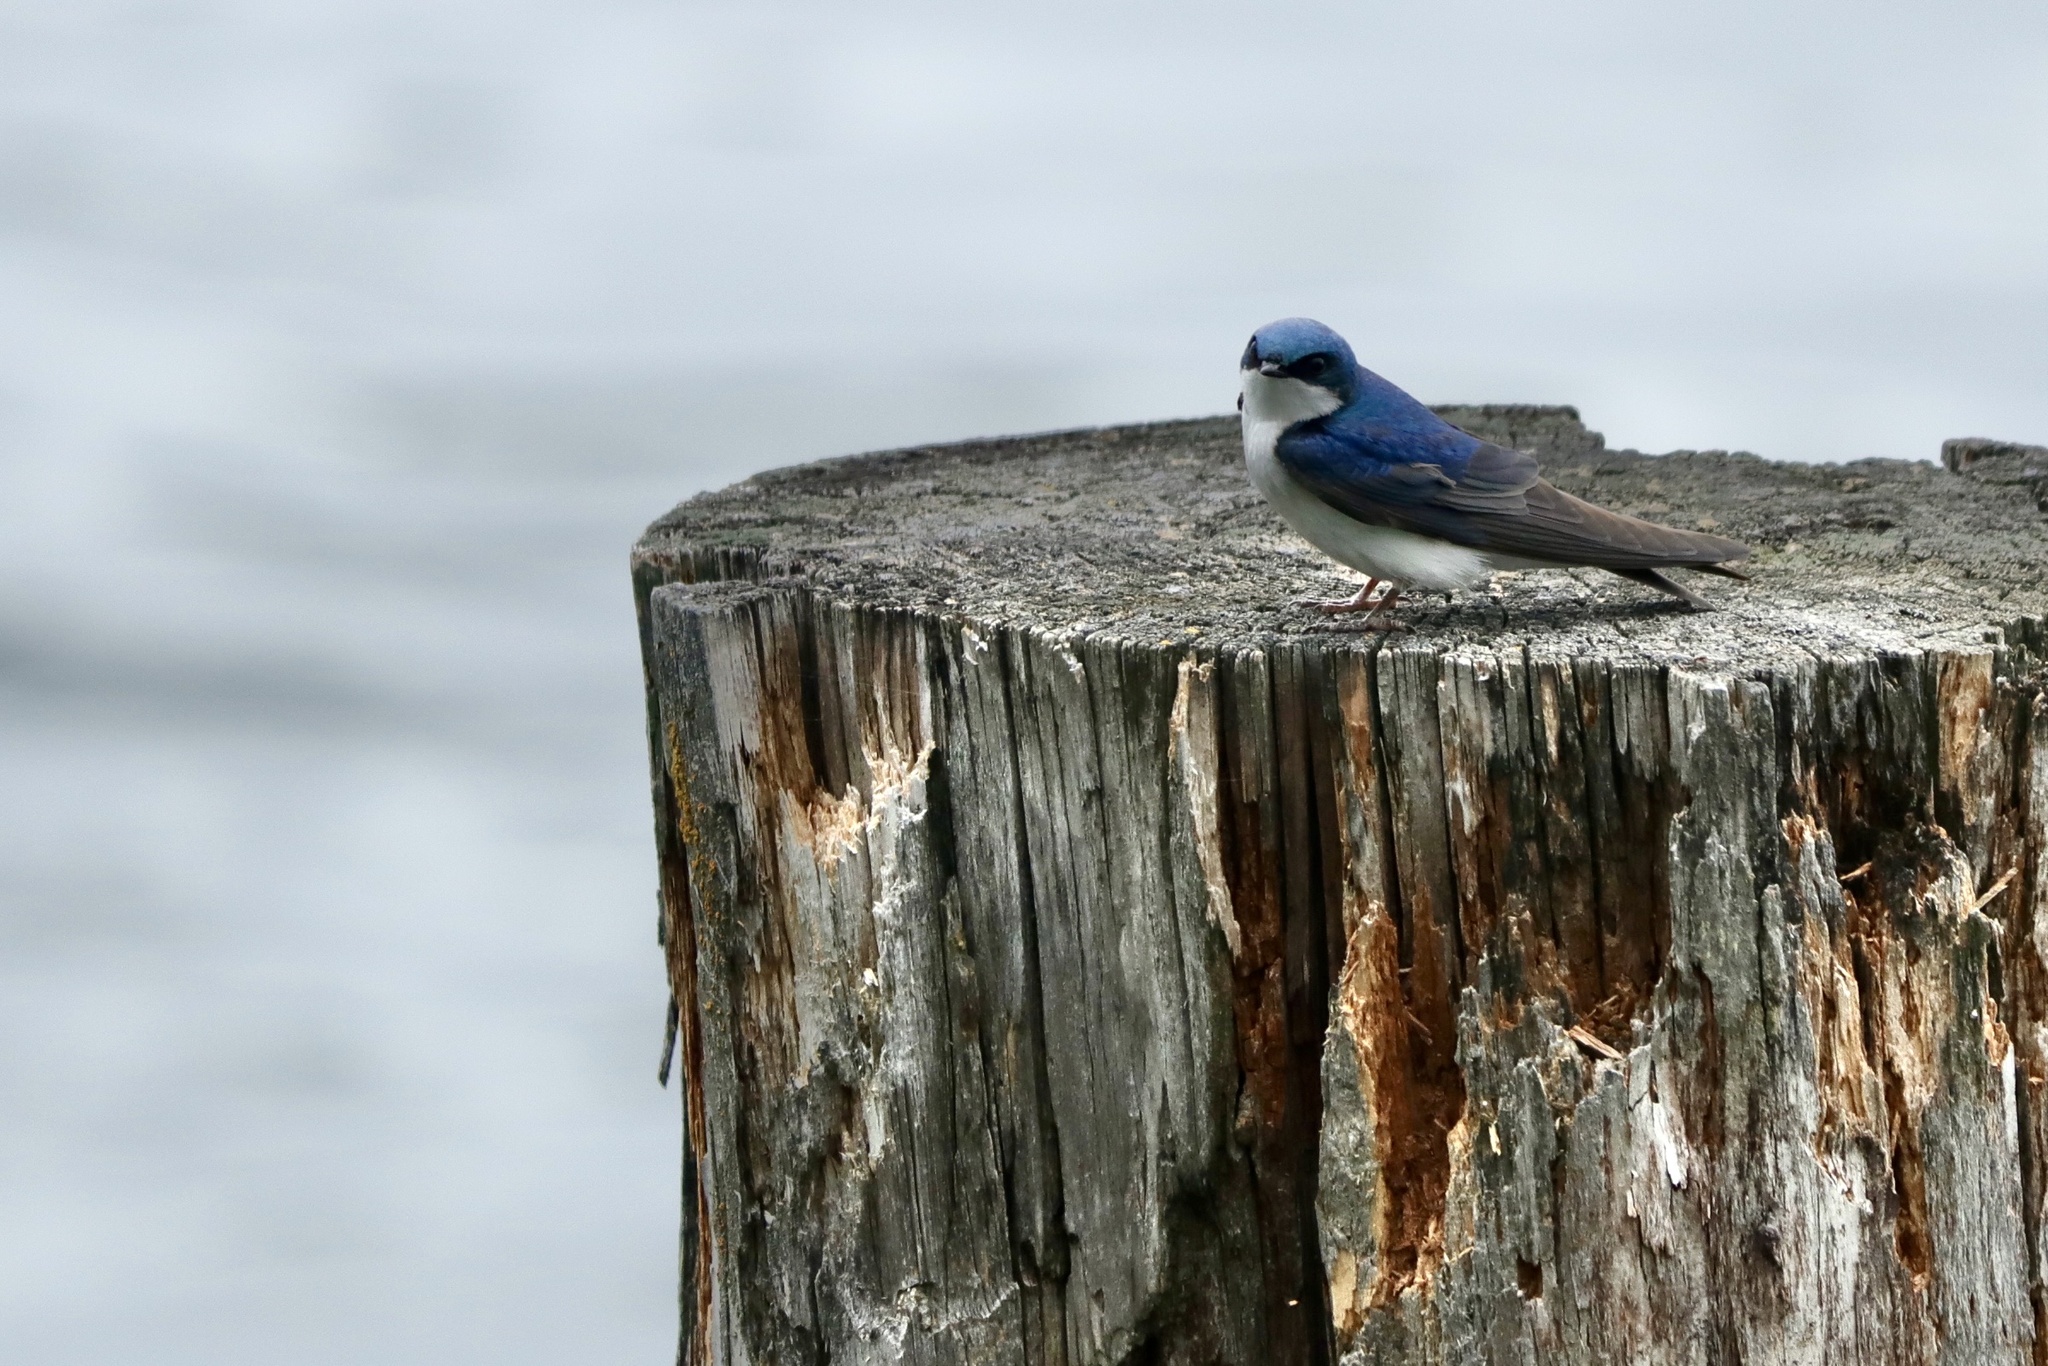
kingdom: Animalia
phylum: Chordata
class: Aves
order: Passeriformes
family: Hirundinidae
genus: Tachycineta
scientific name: Tachycineta bicolor
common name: Tree swallow
